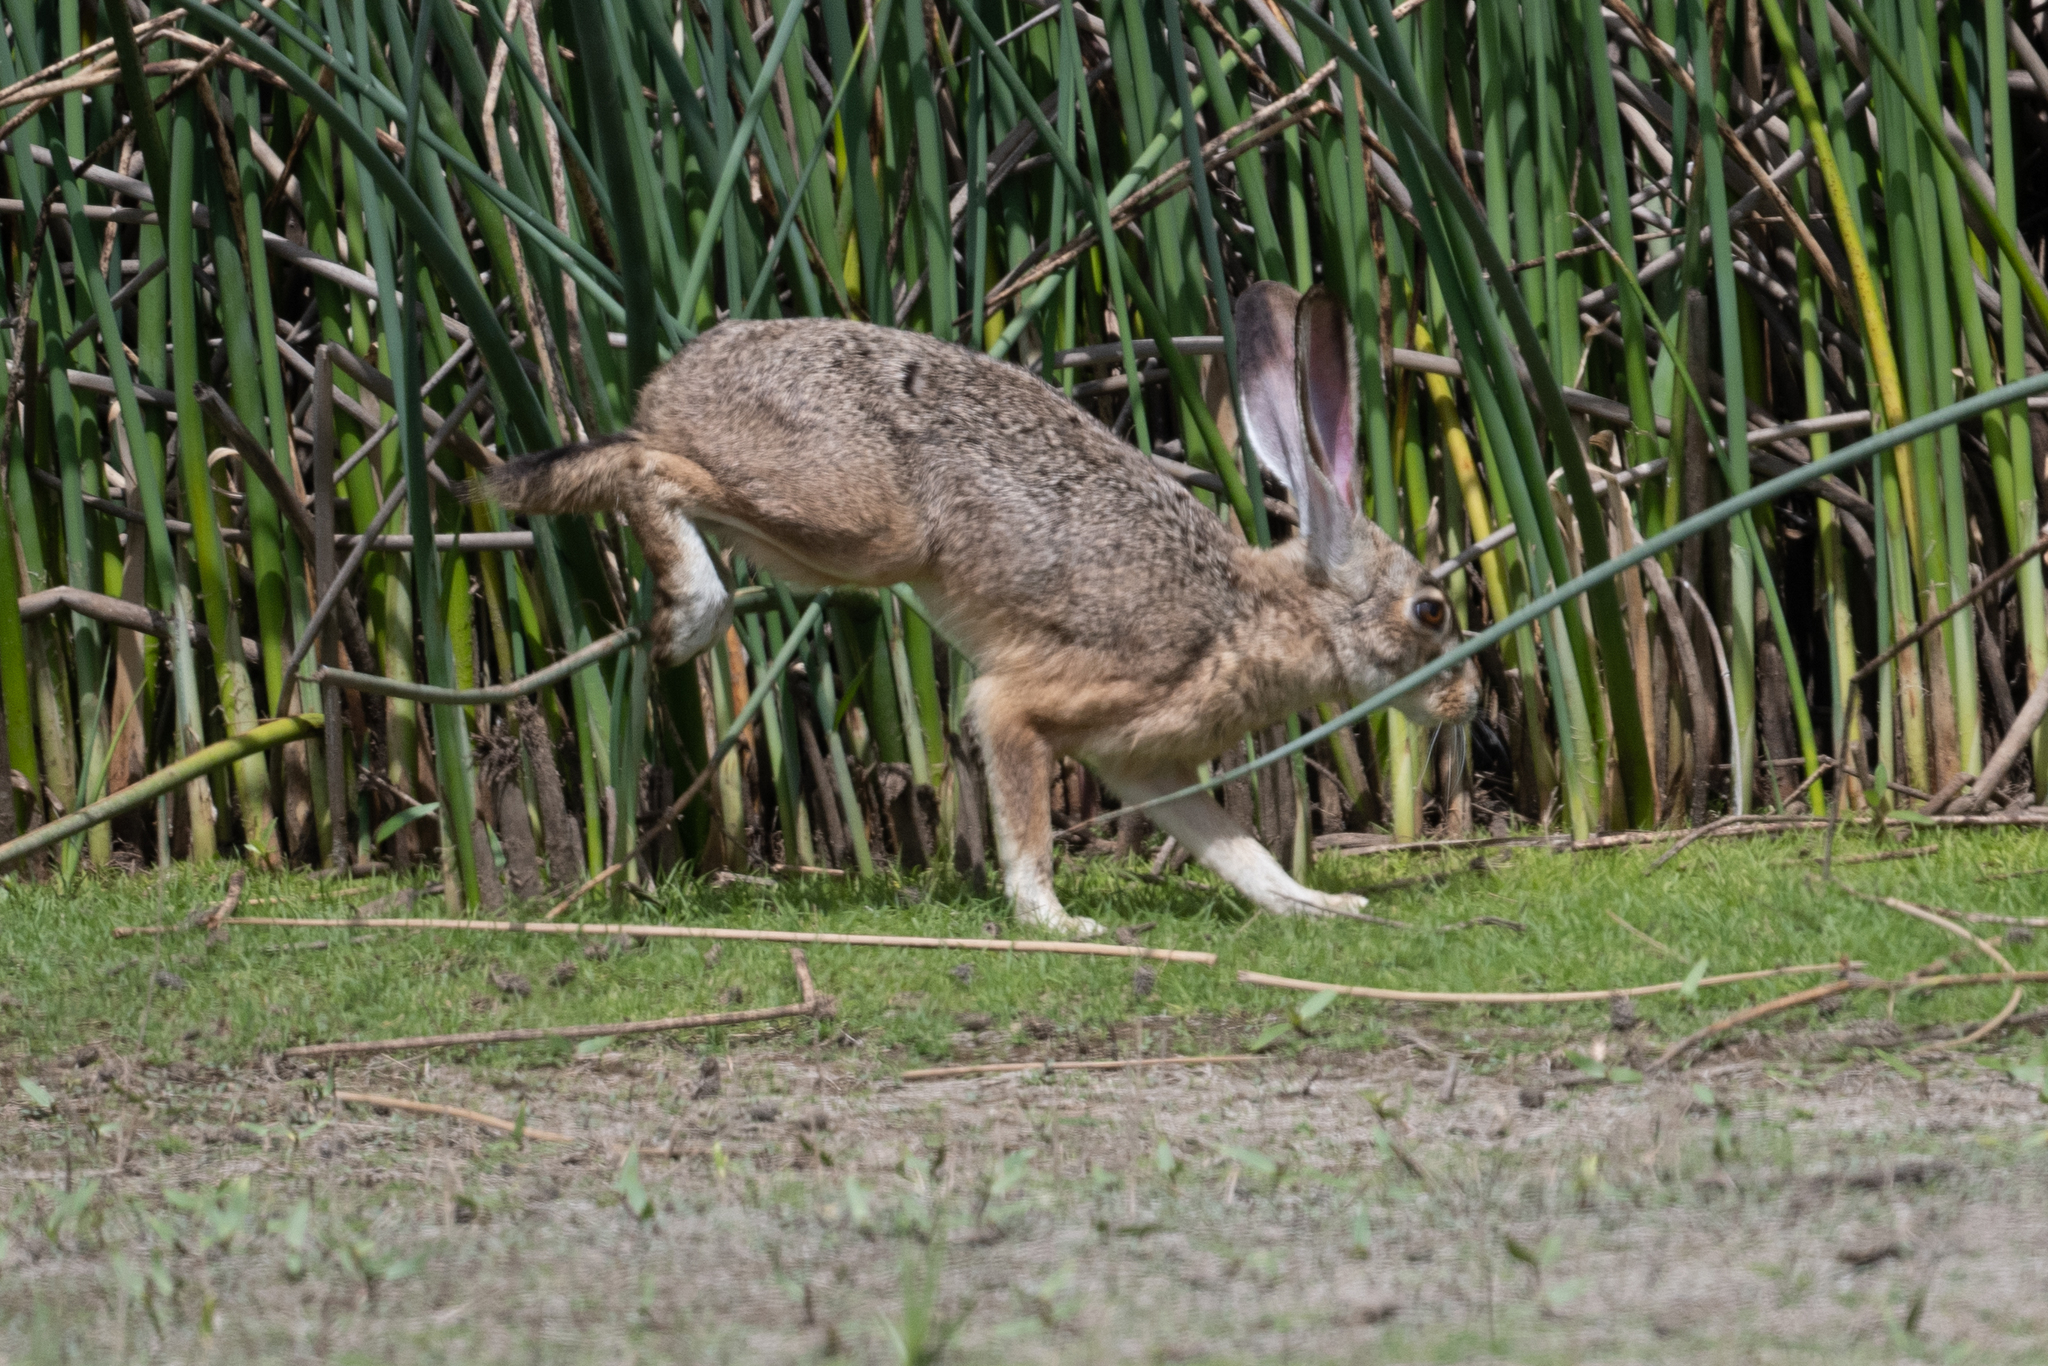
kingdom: Animalia
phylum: Chordata
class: Mammalia
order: Lagomorpha
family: Leporidae
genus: Lepus
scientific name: Lepus californicus
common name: Black-tailed jackrabbit
